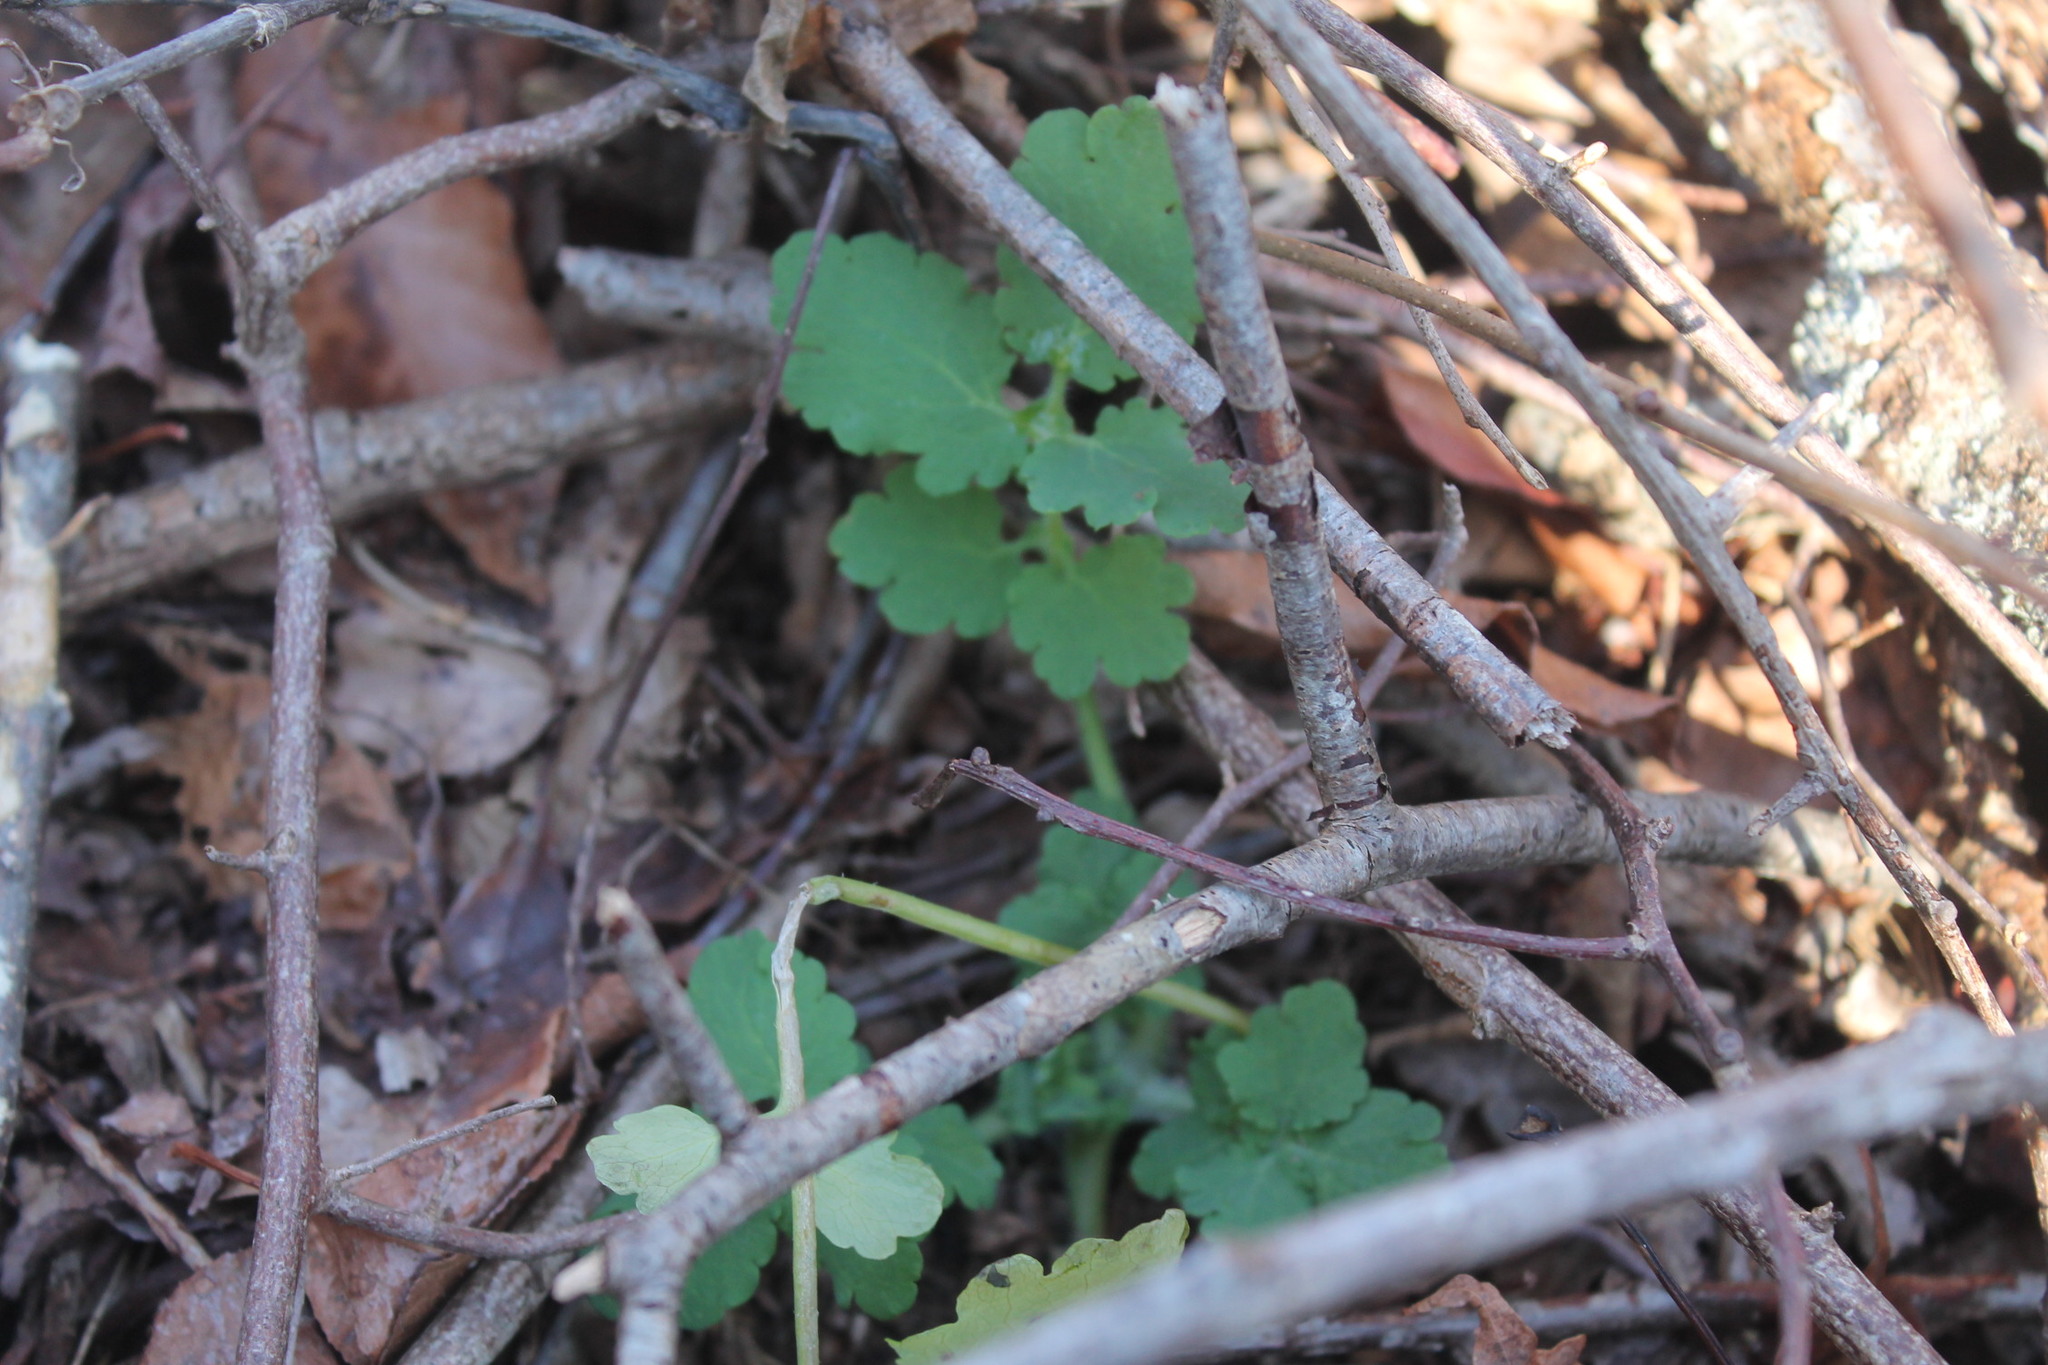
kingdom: Plantae
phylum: Tracheophyta
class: Magnoliopsida
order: Ranunculales
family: Papaveraceae
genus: Chelidonium
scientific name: Chelidonium majus
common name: Greater celandine
